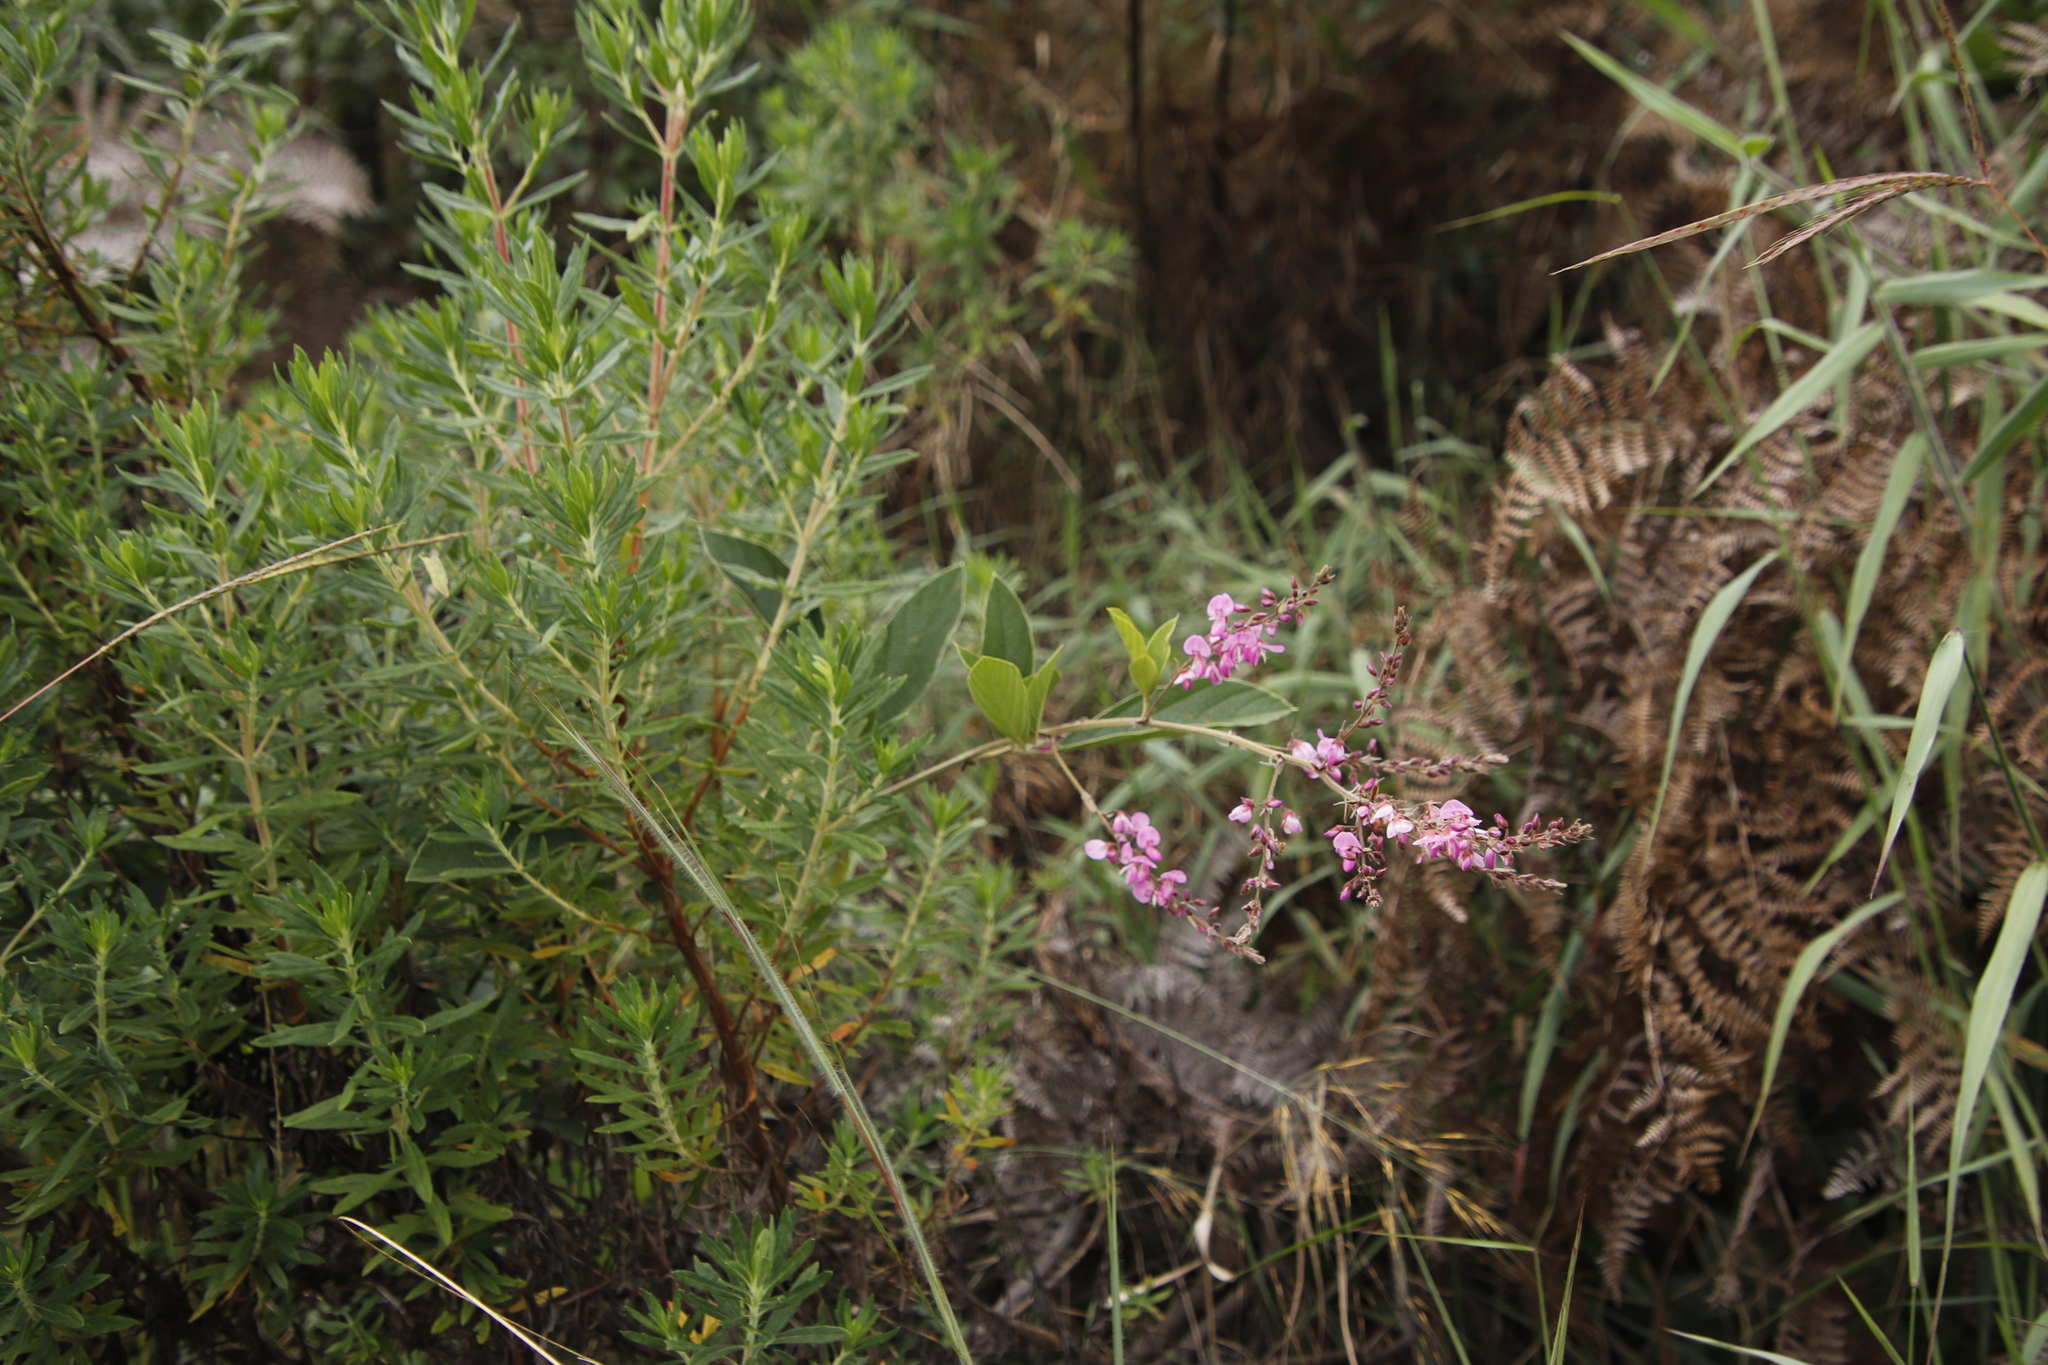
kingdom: Plantae
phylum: Tracheophyta
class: Magnoliopsida
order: Fabales
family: Fabaceae
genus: Pseudarthria
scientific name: Pseudarthria hookeri
